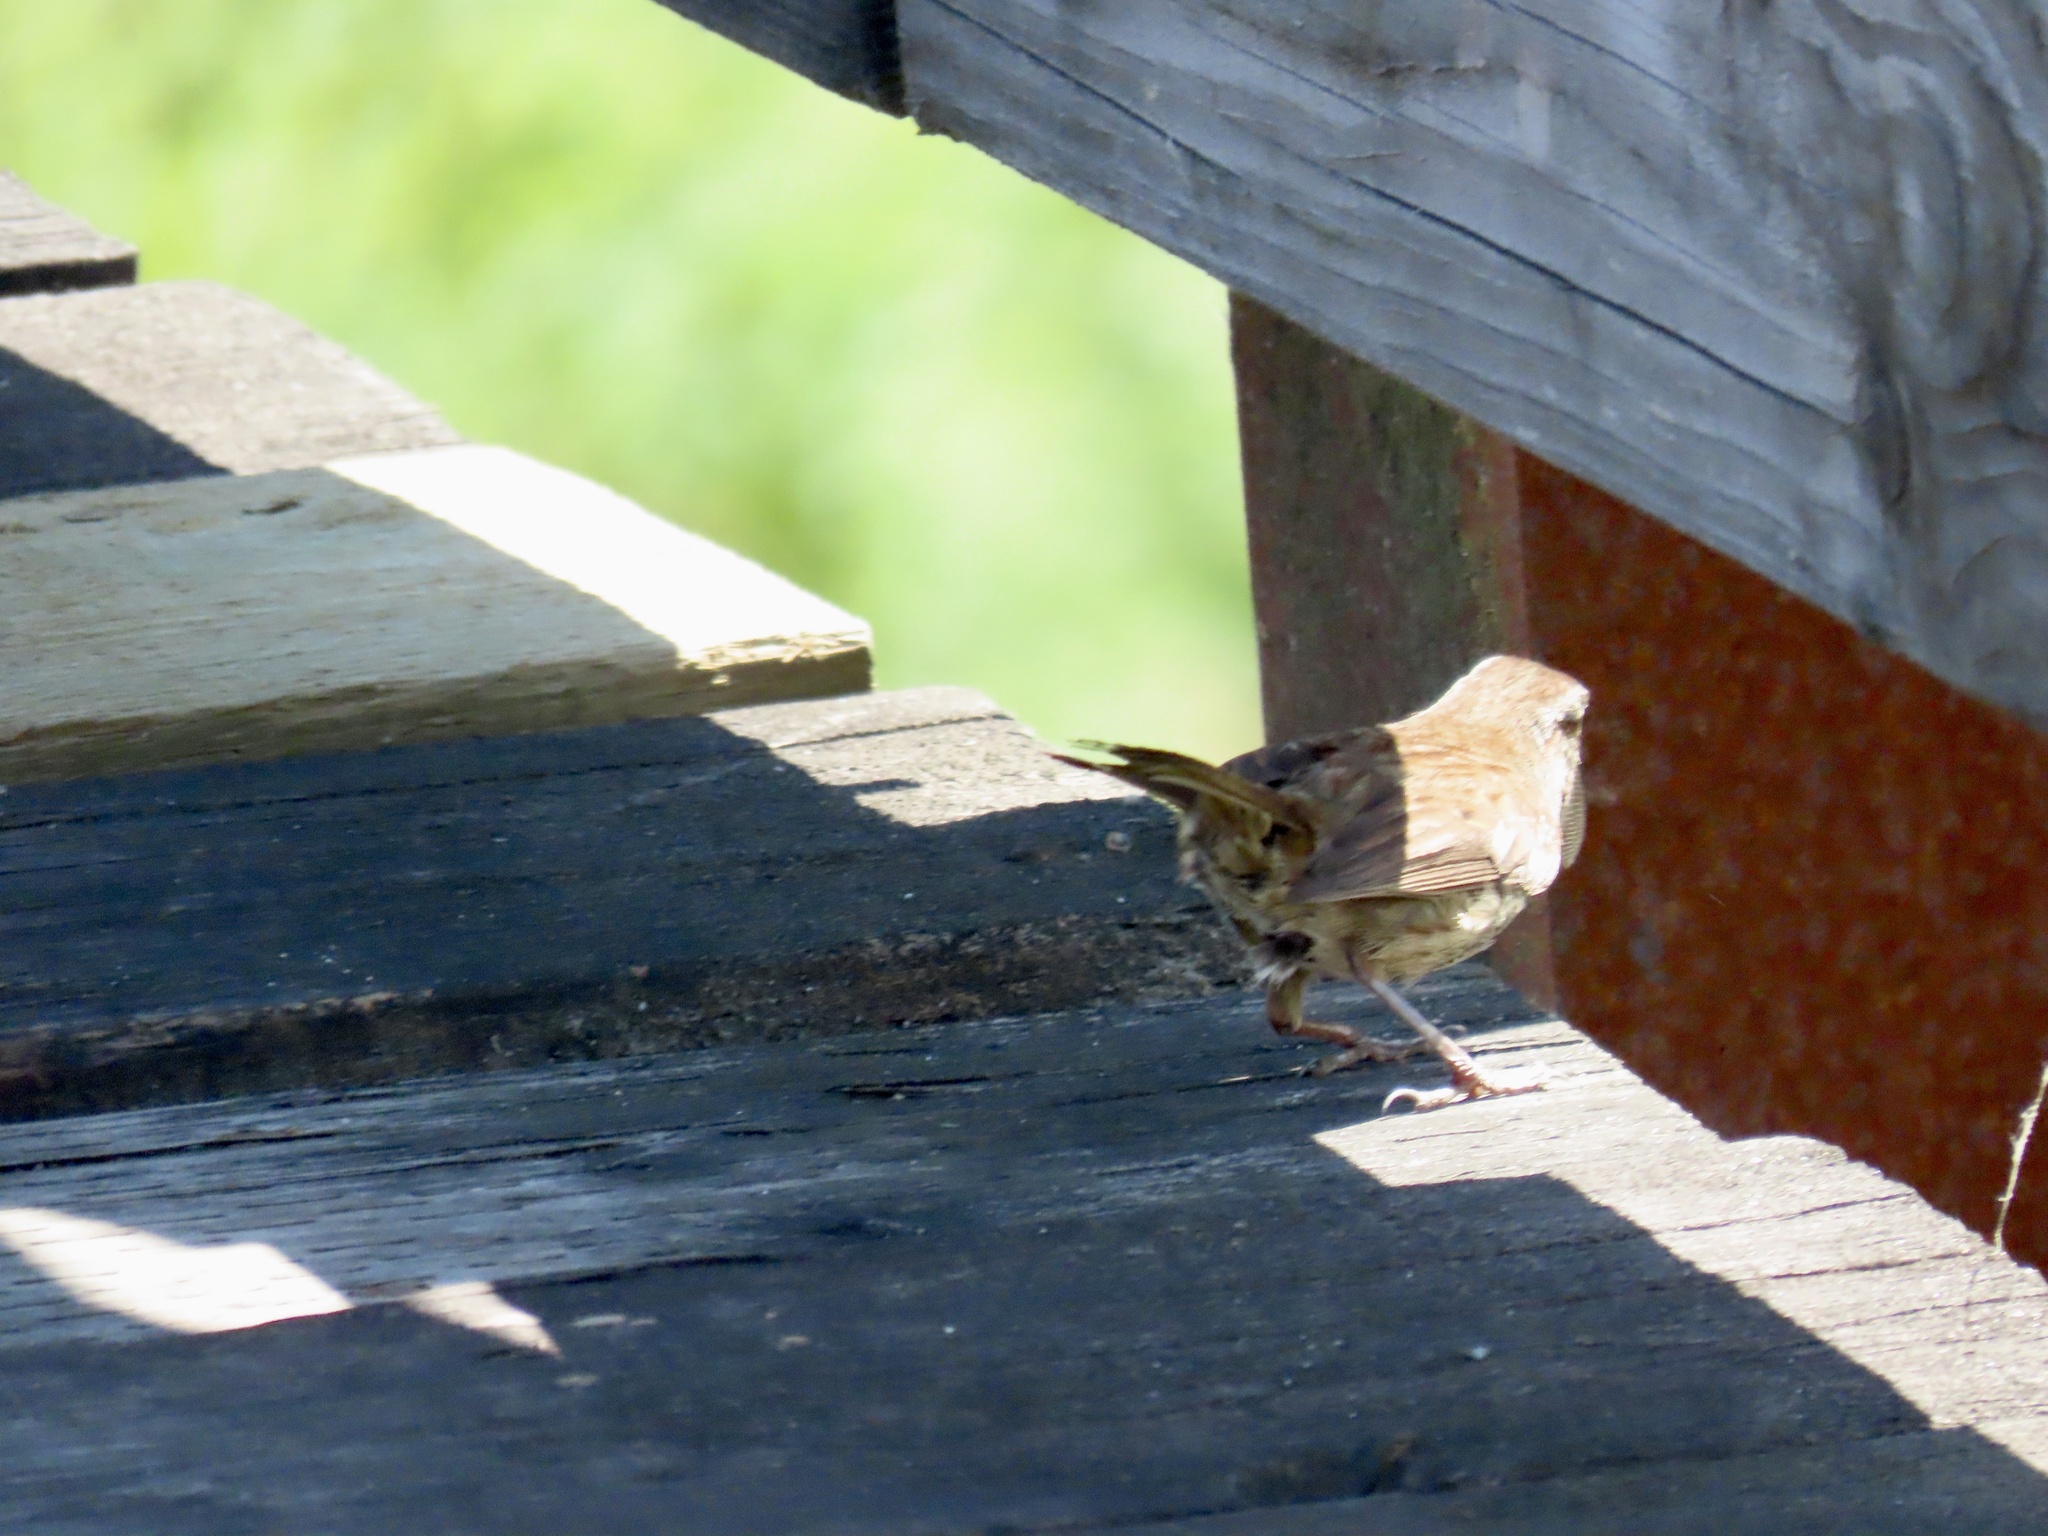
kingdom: Animalia
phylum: Chordata
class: Aves
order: Passeriformes
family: Passerellidae
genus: Melospiza
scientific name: Melospiza melodia
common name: Song sparrow
